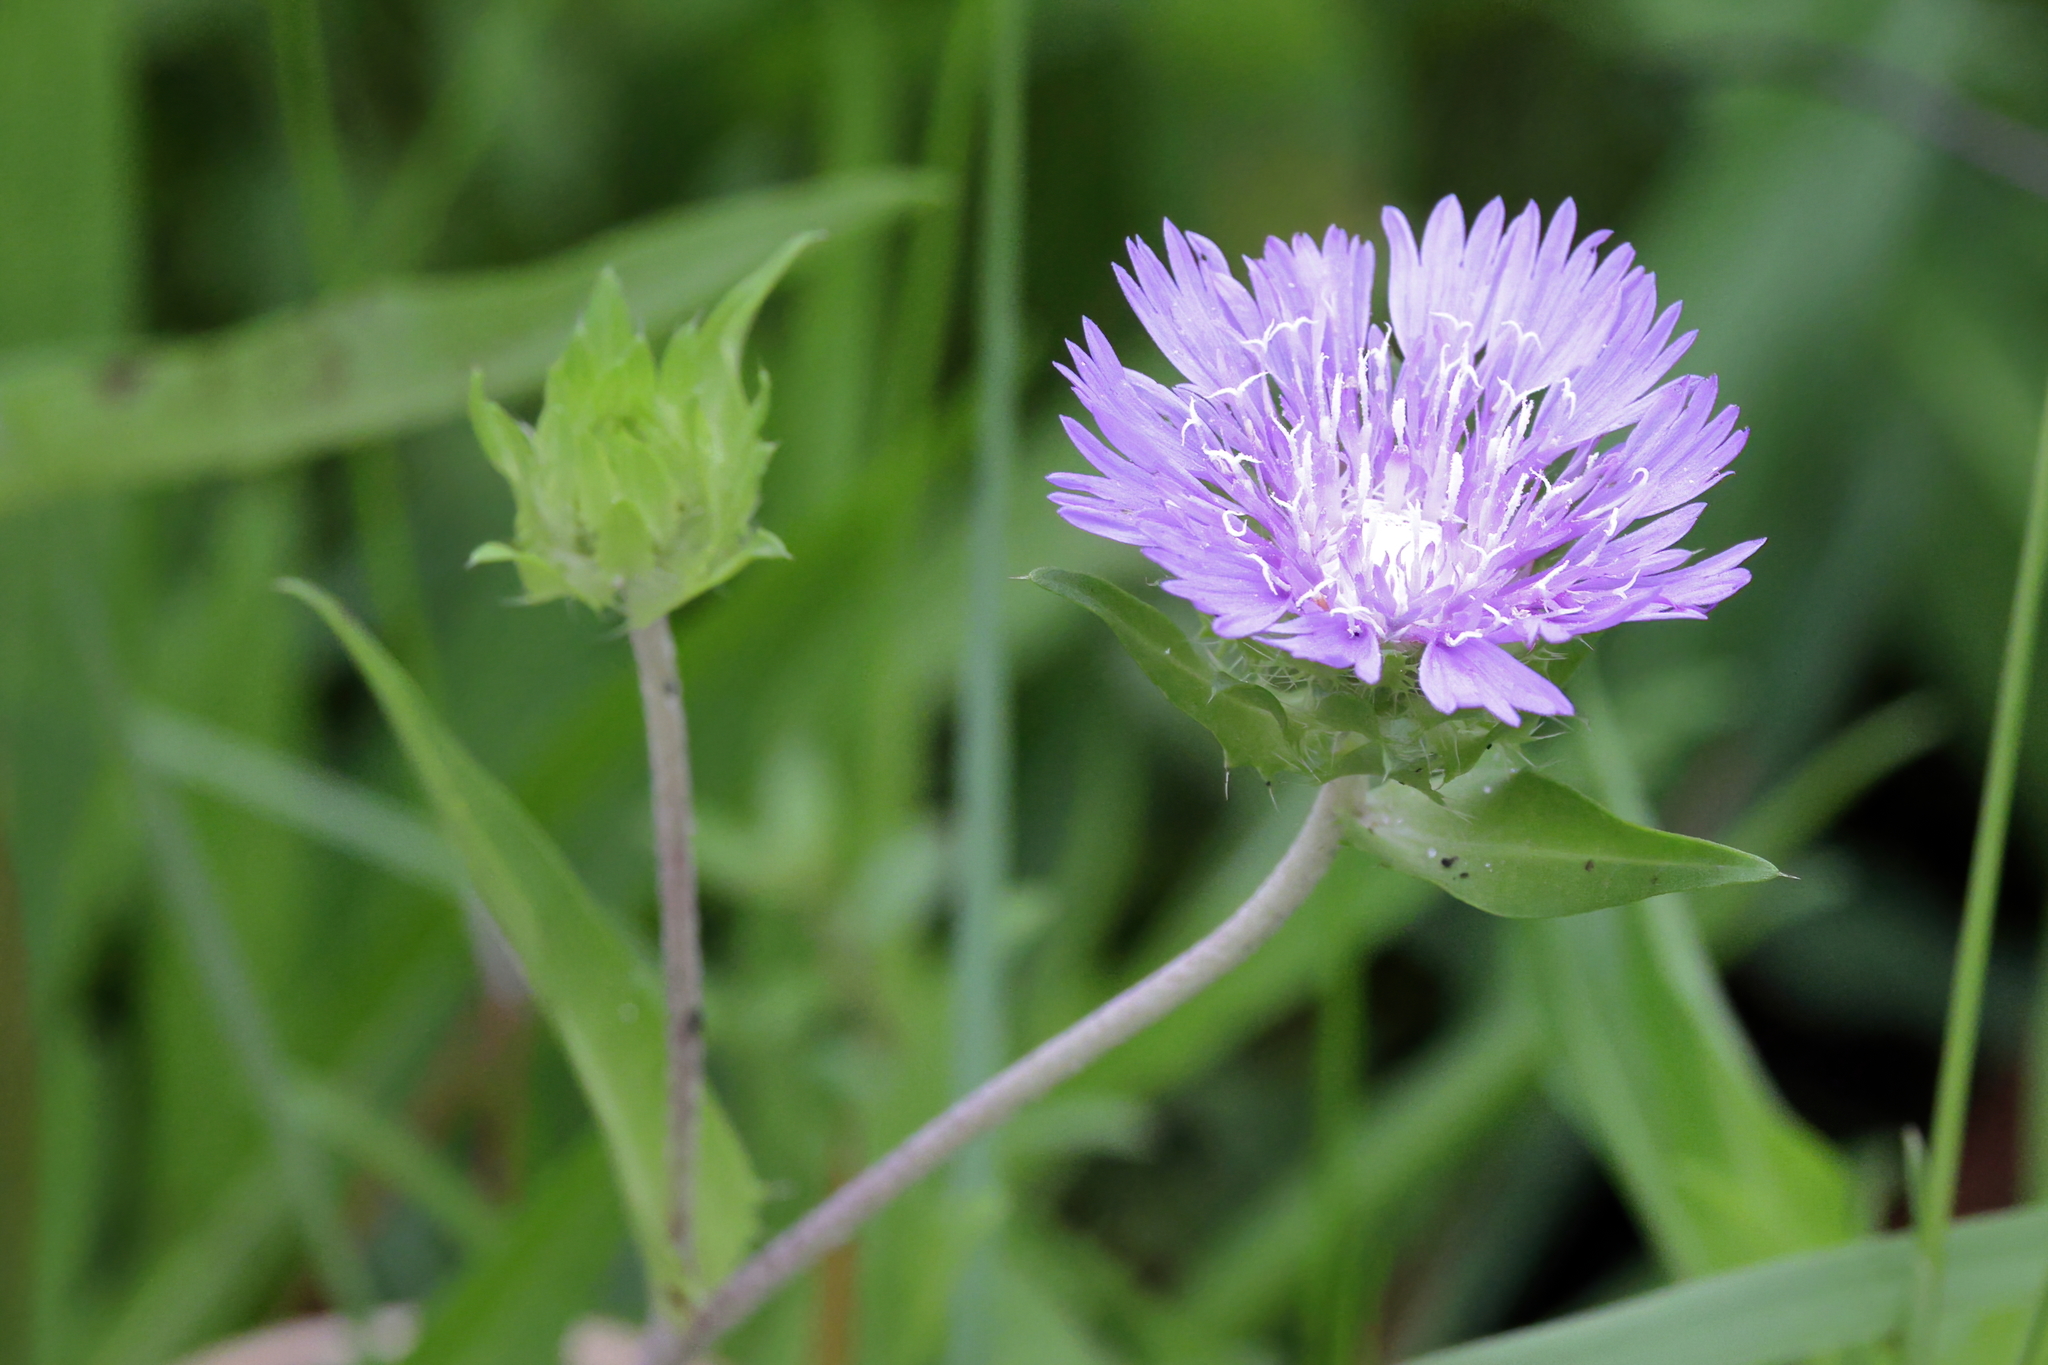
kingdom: Plantae
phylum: Tracheophyta
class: Magnoliopsida
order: Asterales
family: Asteraceae
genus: Stokesia
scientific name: Stokesia laevis
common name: Stokes'-aster
